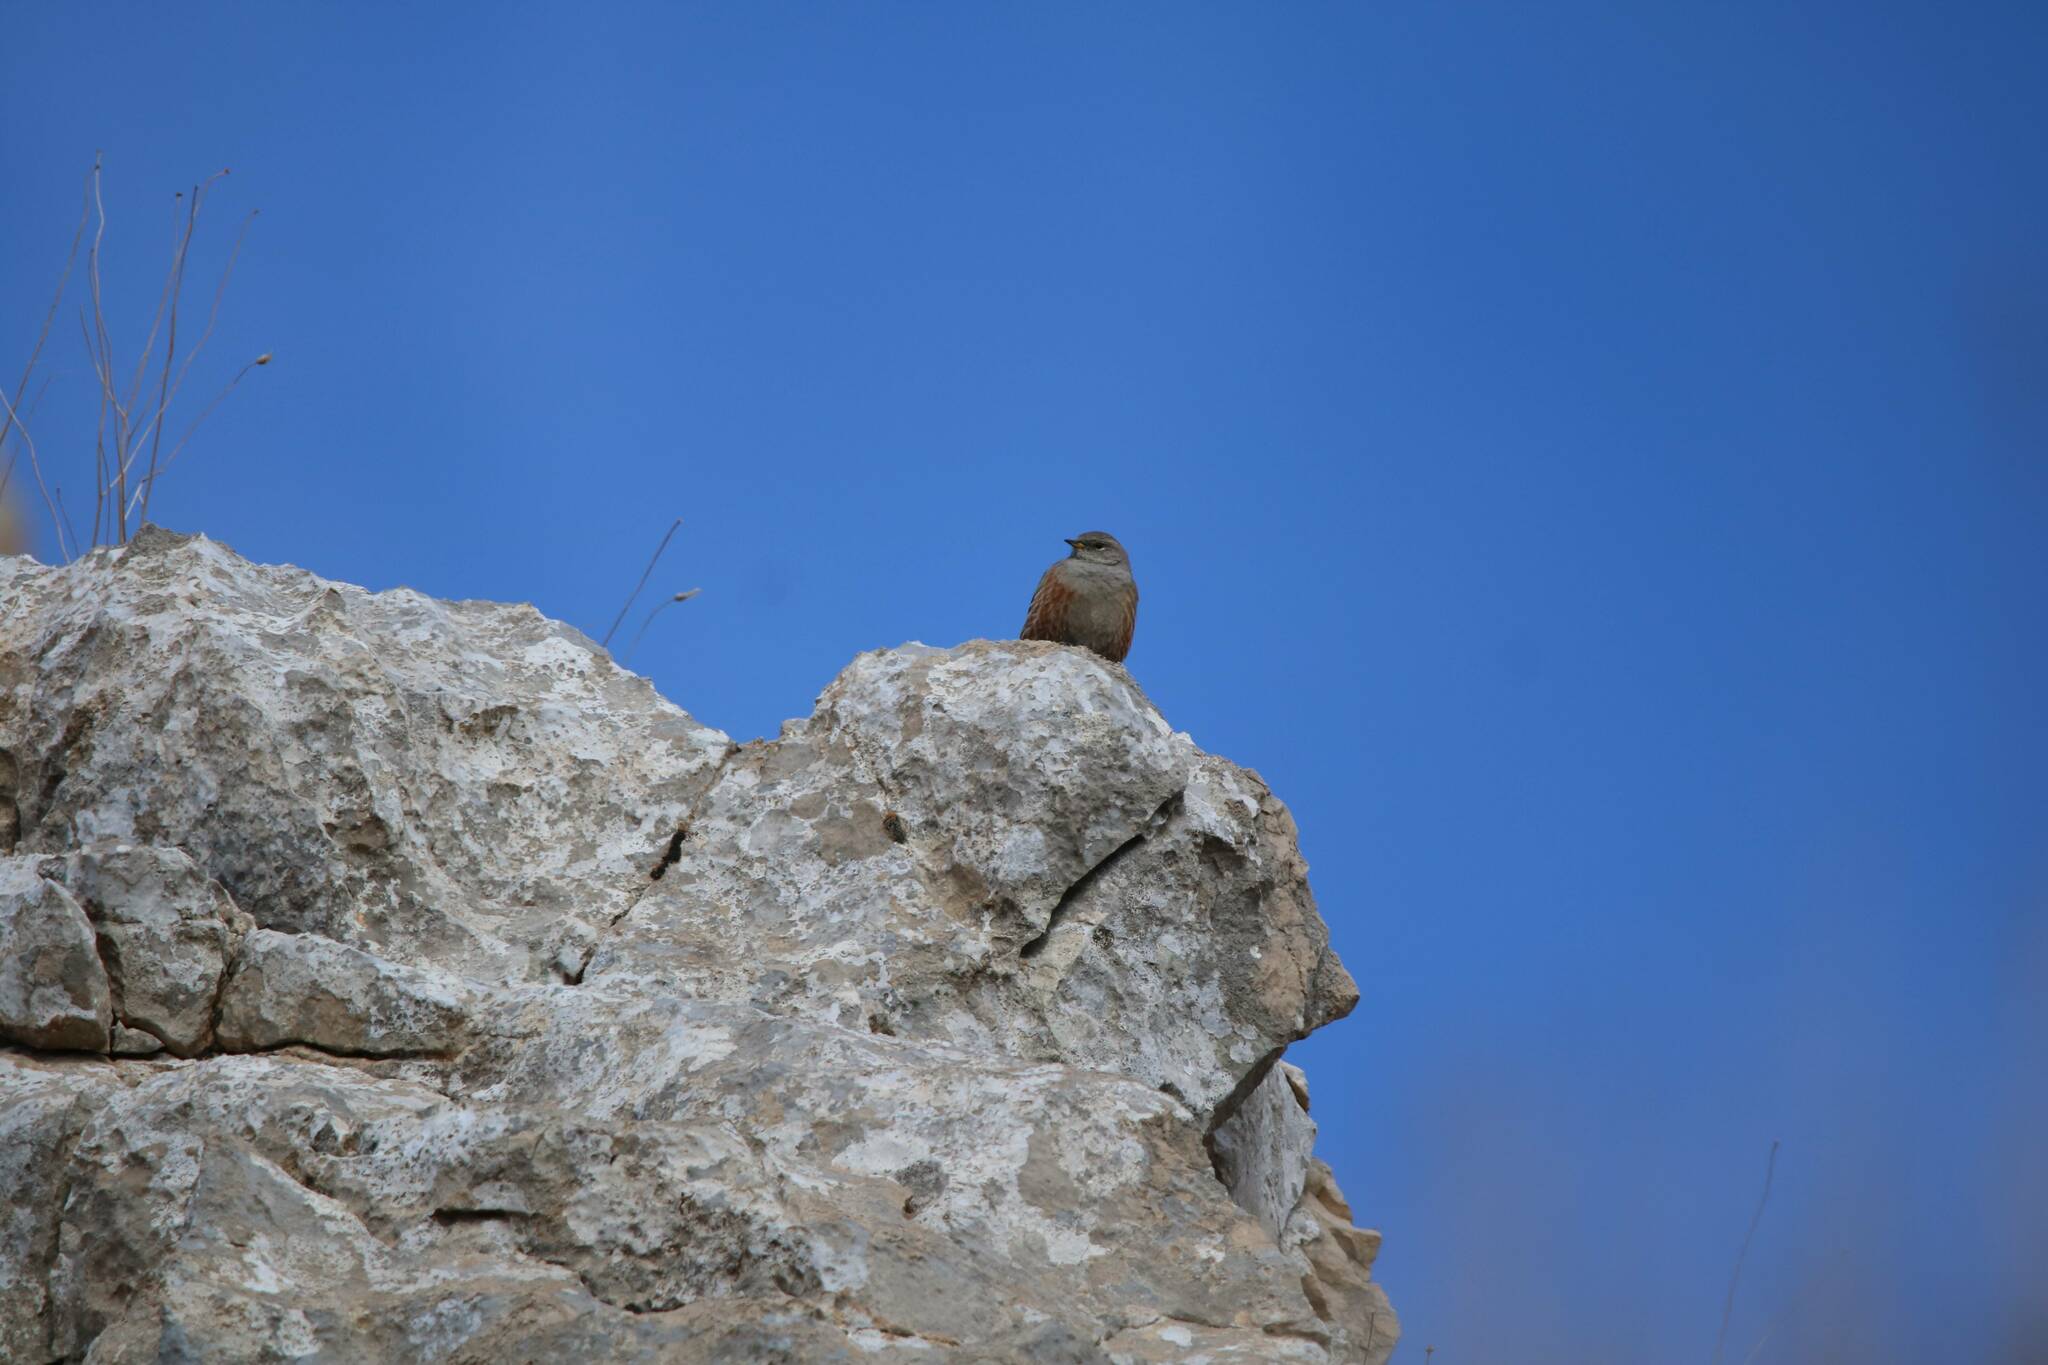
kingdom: Animalia
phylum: Chordata
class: Aves
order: Passeriformes
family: Prunellidae
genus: Prunella
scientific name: Prunella collaris
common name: Alpine accentor
